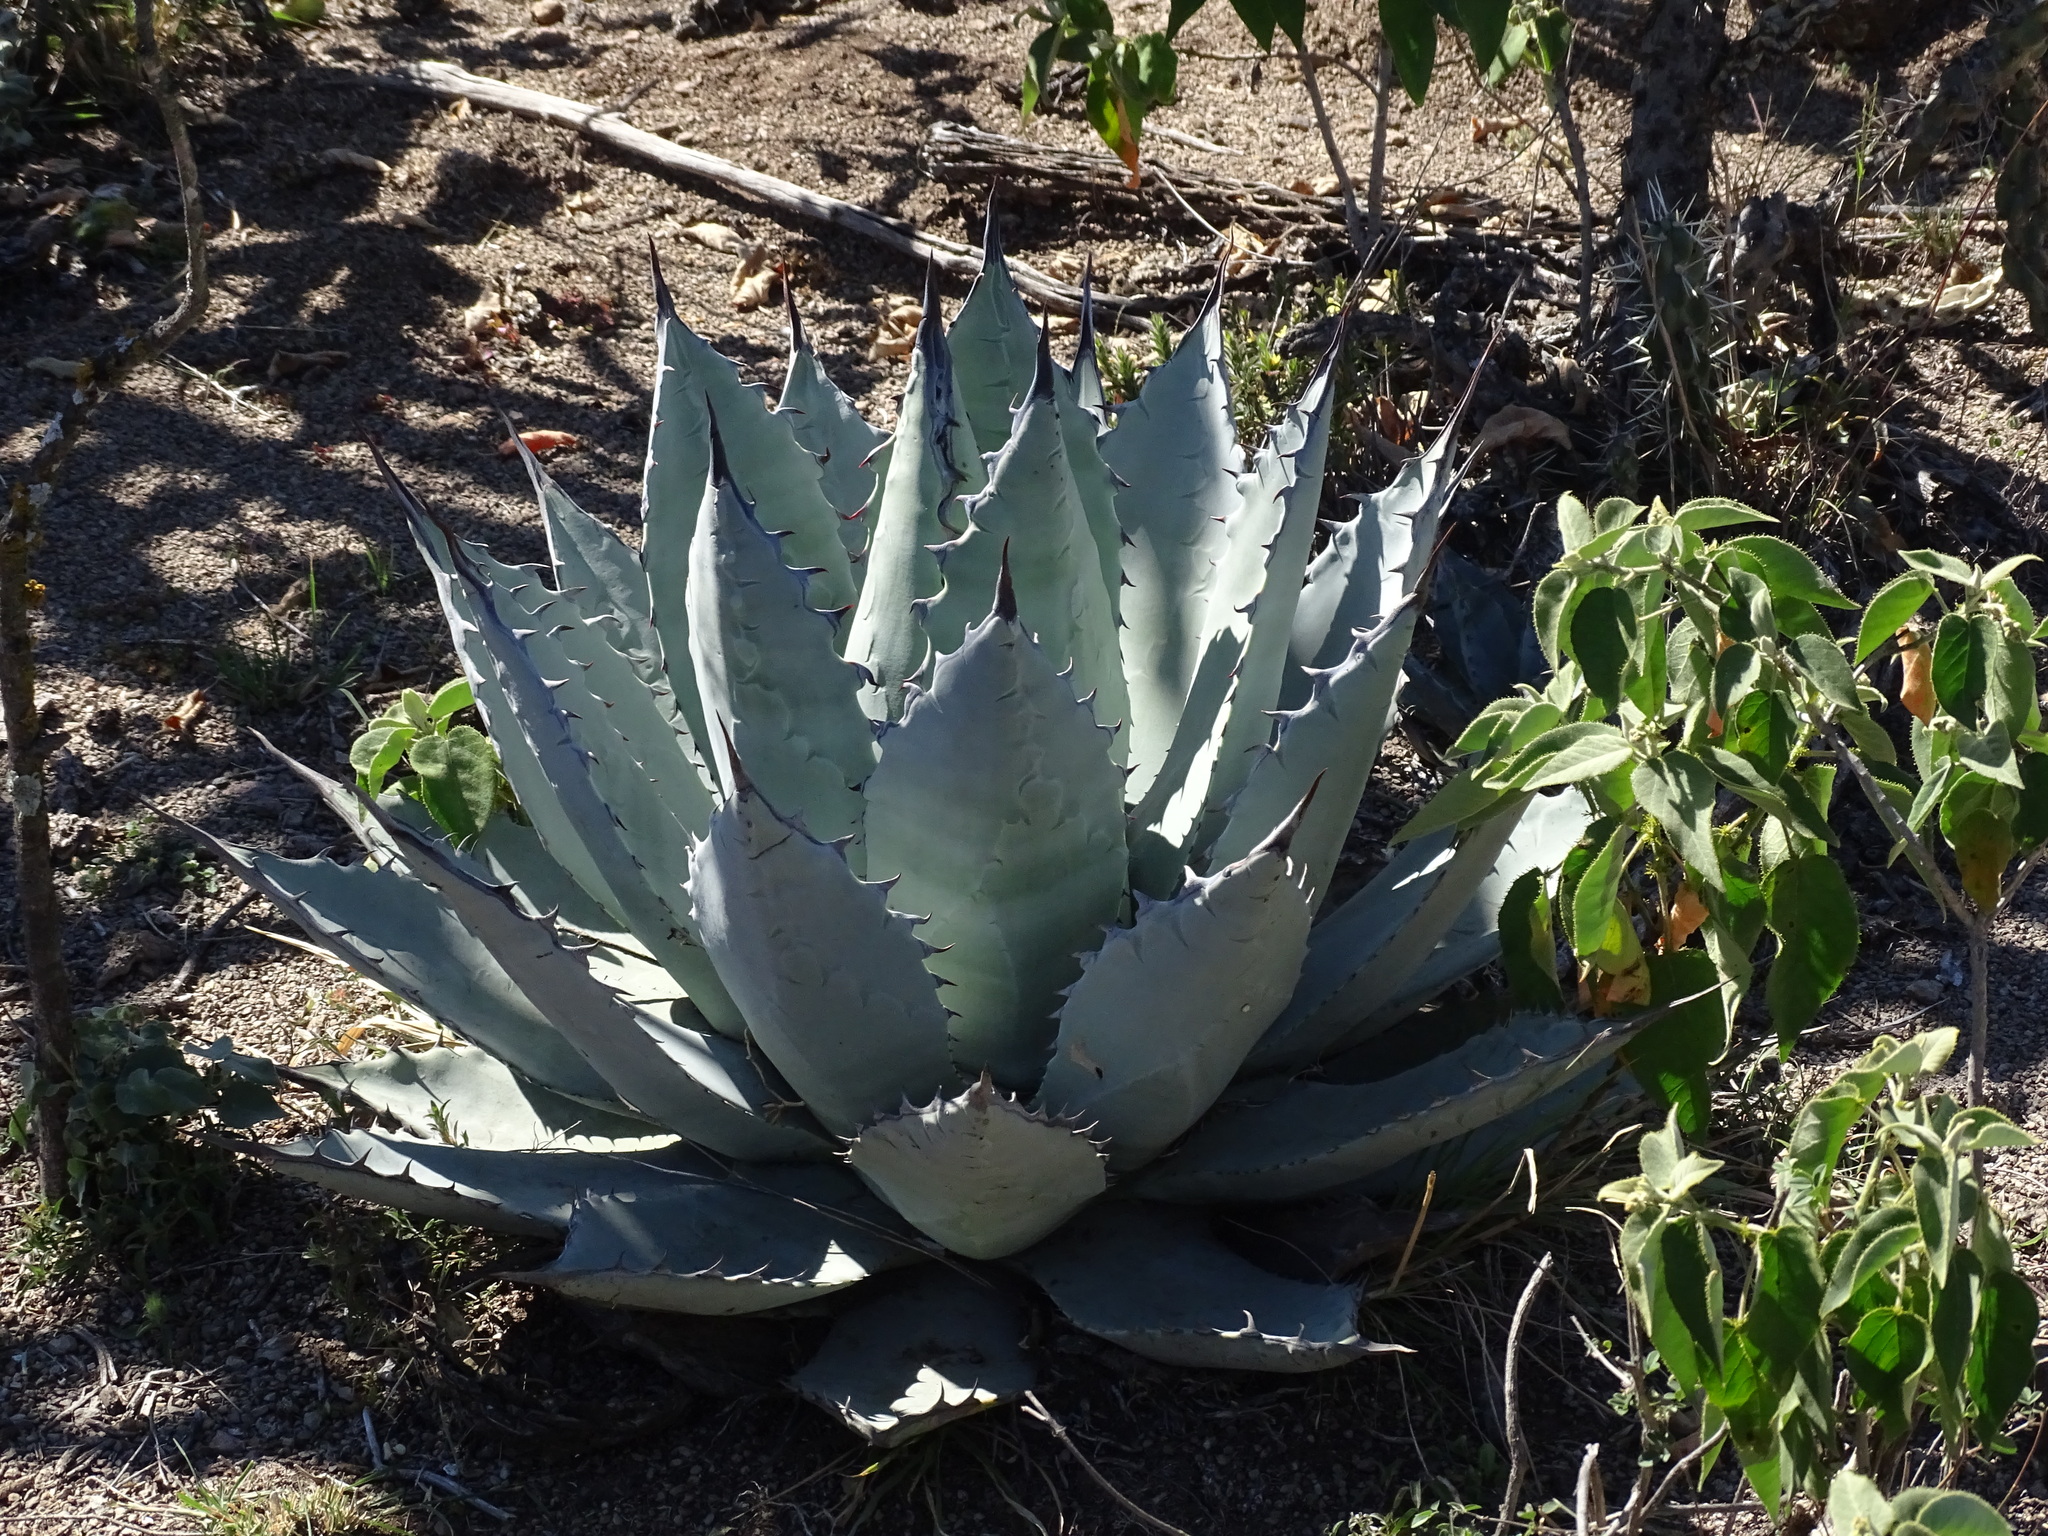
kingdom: Plantae
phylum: Tracheophyta
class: Liliopsida
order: Asparagales
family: Asparagaceae
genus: Agave
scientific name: Agave applanata
